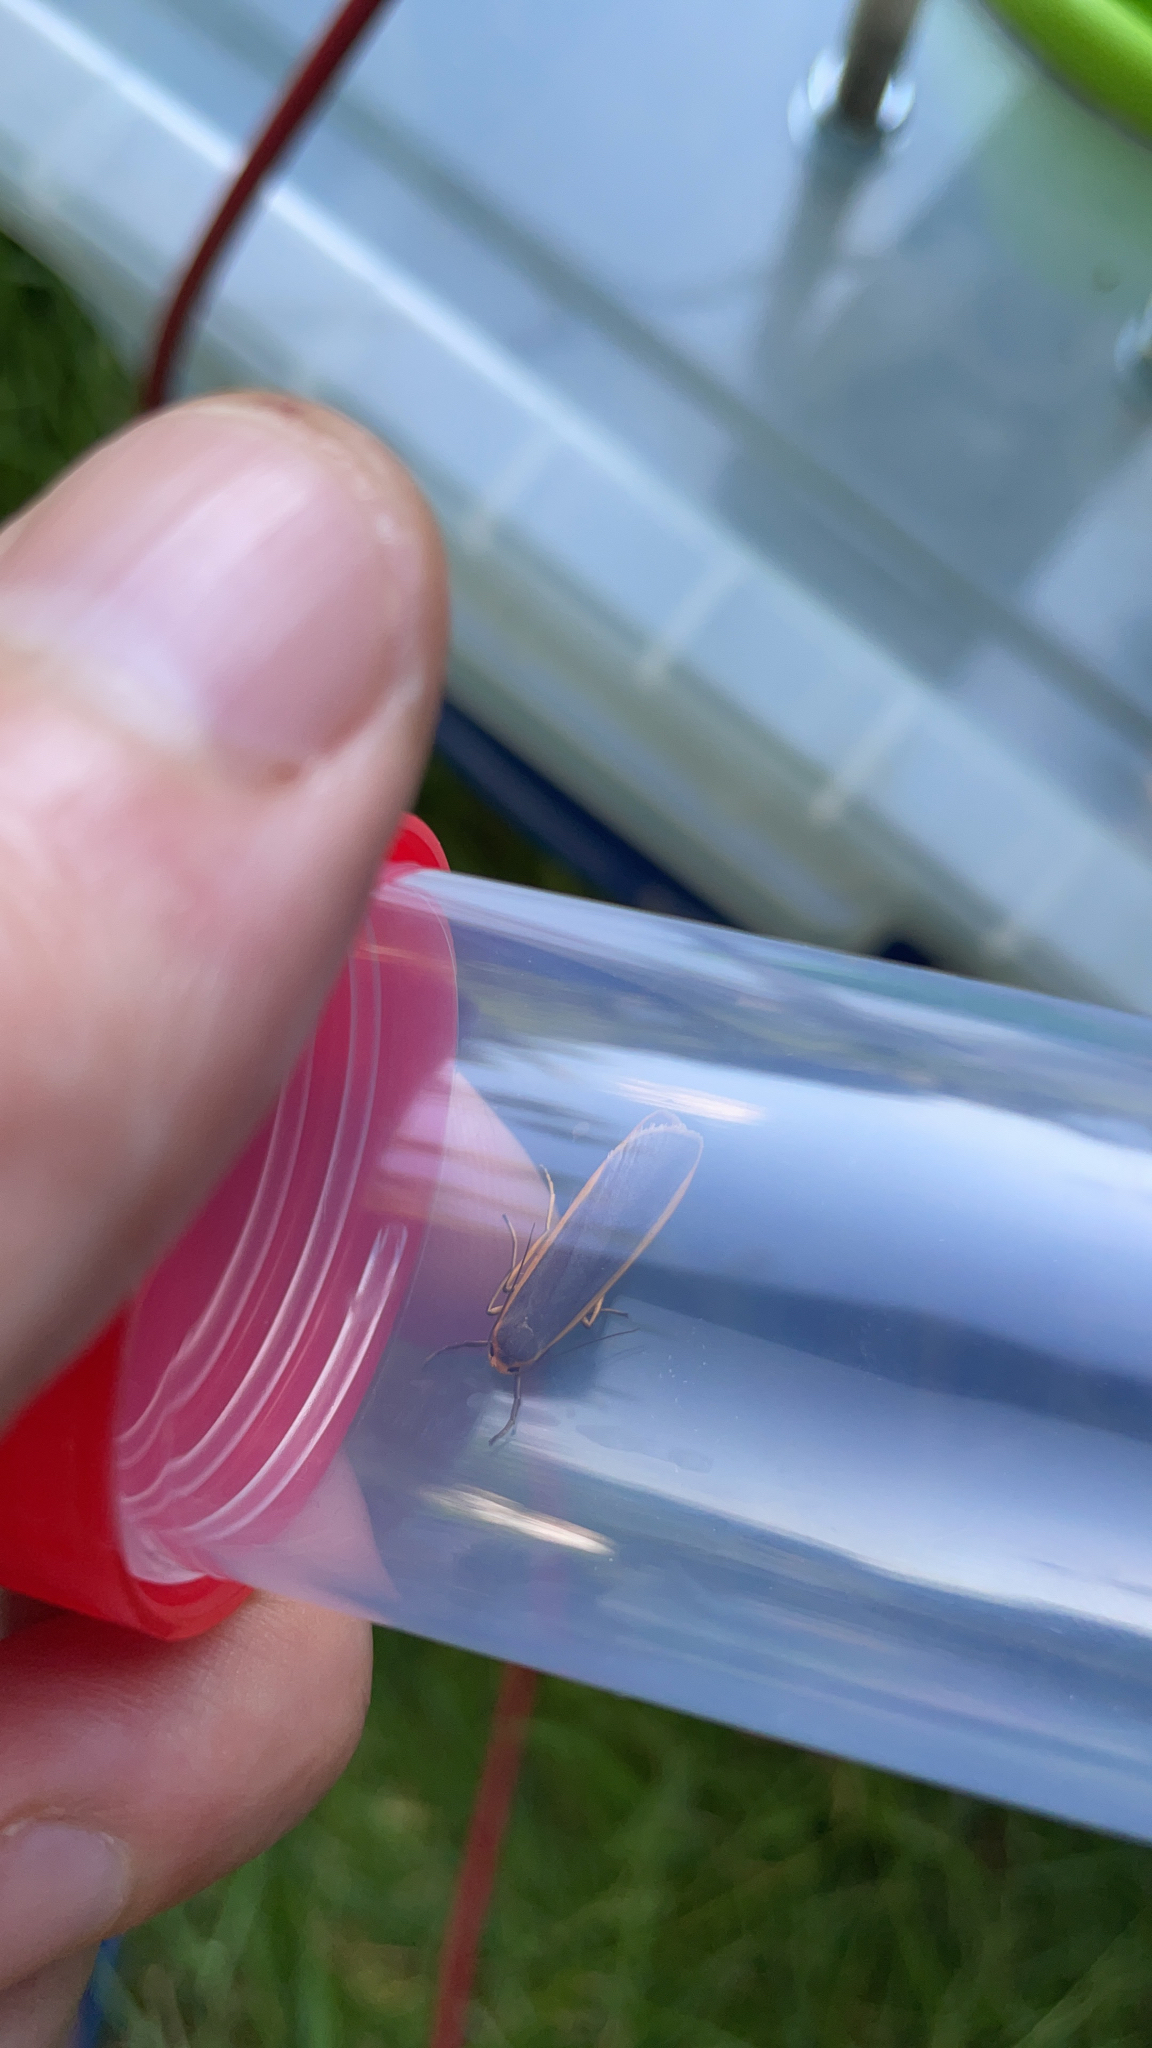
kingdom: Animalia
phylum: Arthropoda
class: Insecta
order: Lepidoptera
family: Erebidae
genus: Nyea
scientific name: Nyea lurideola
